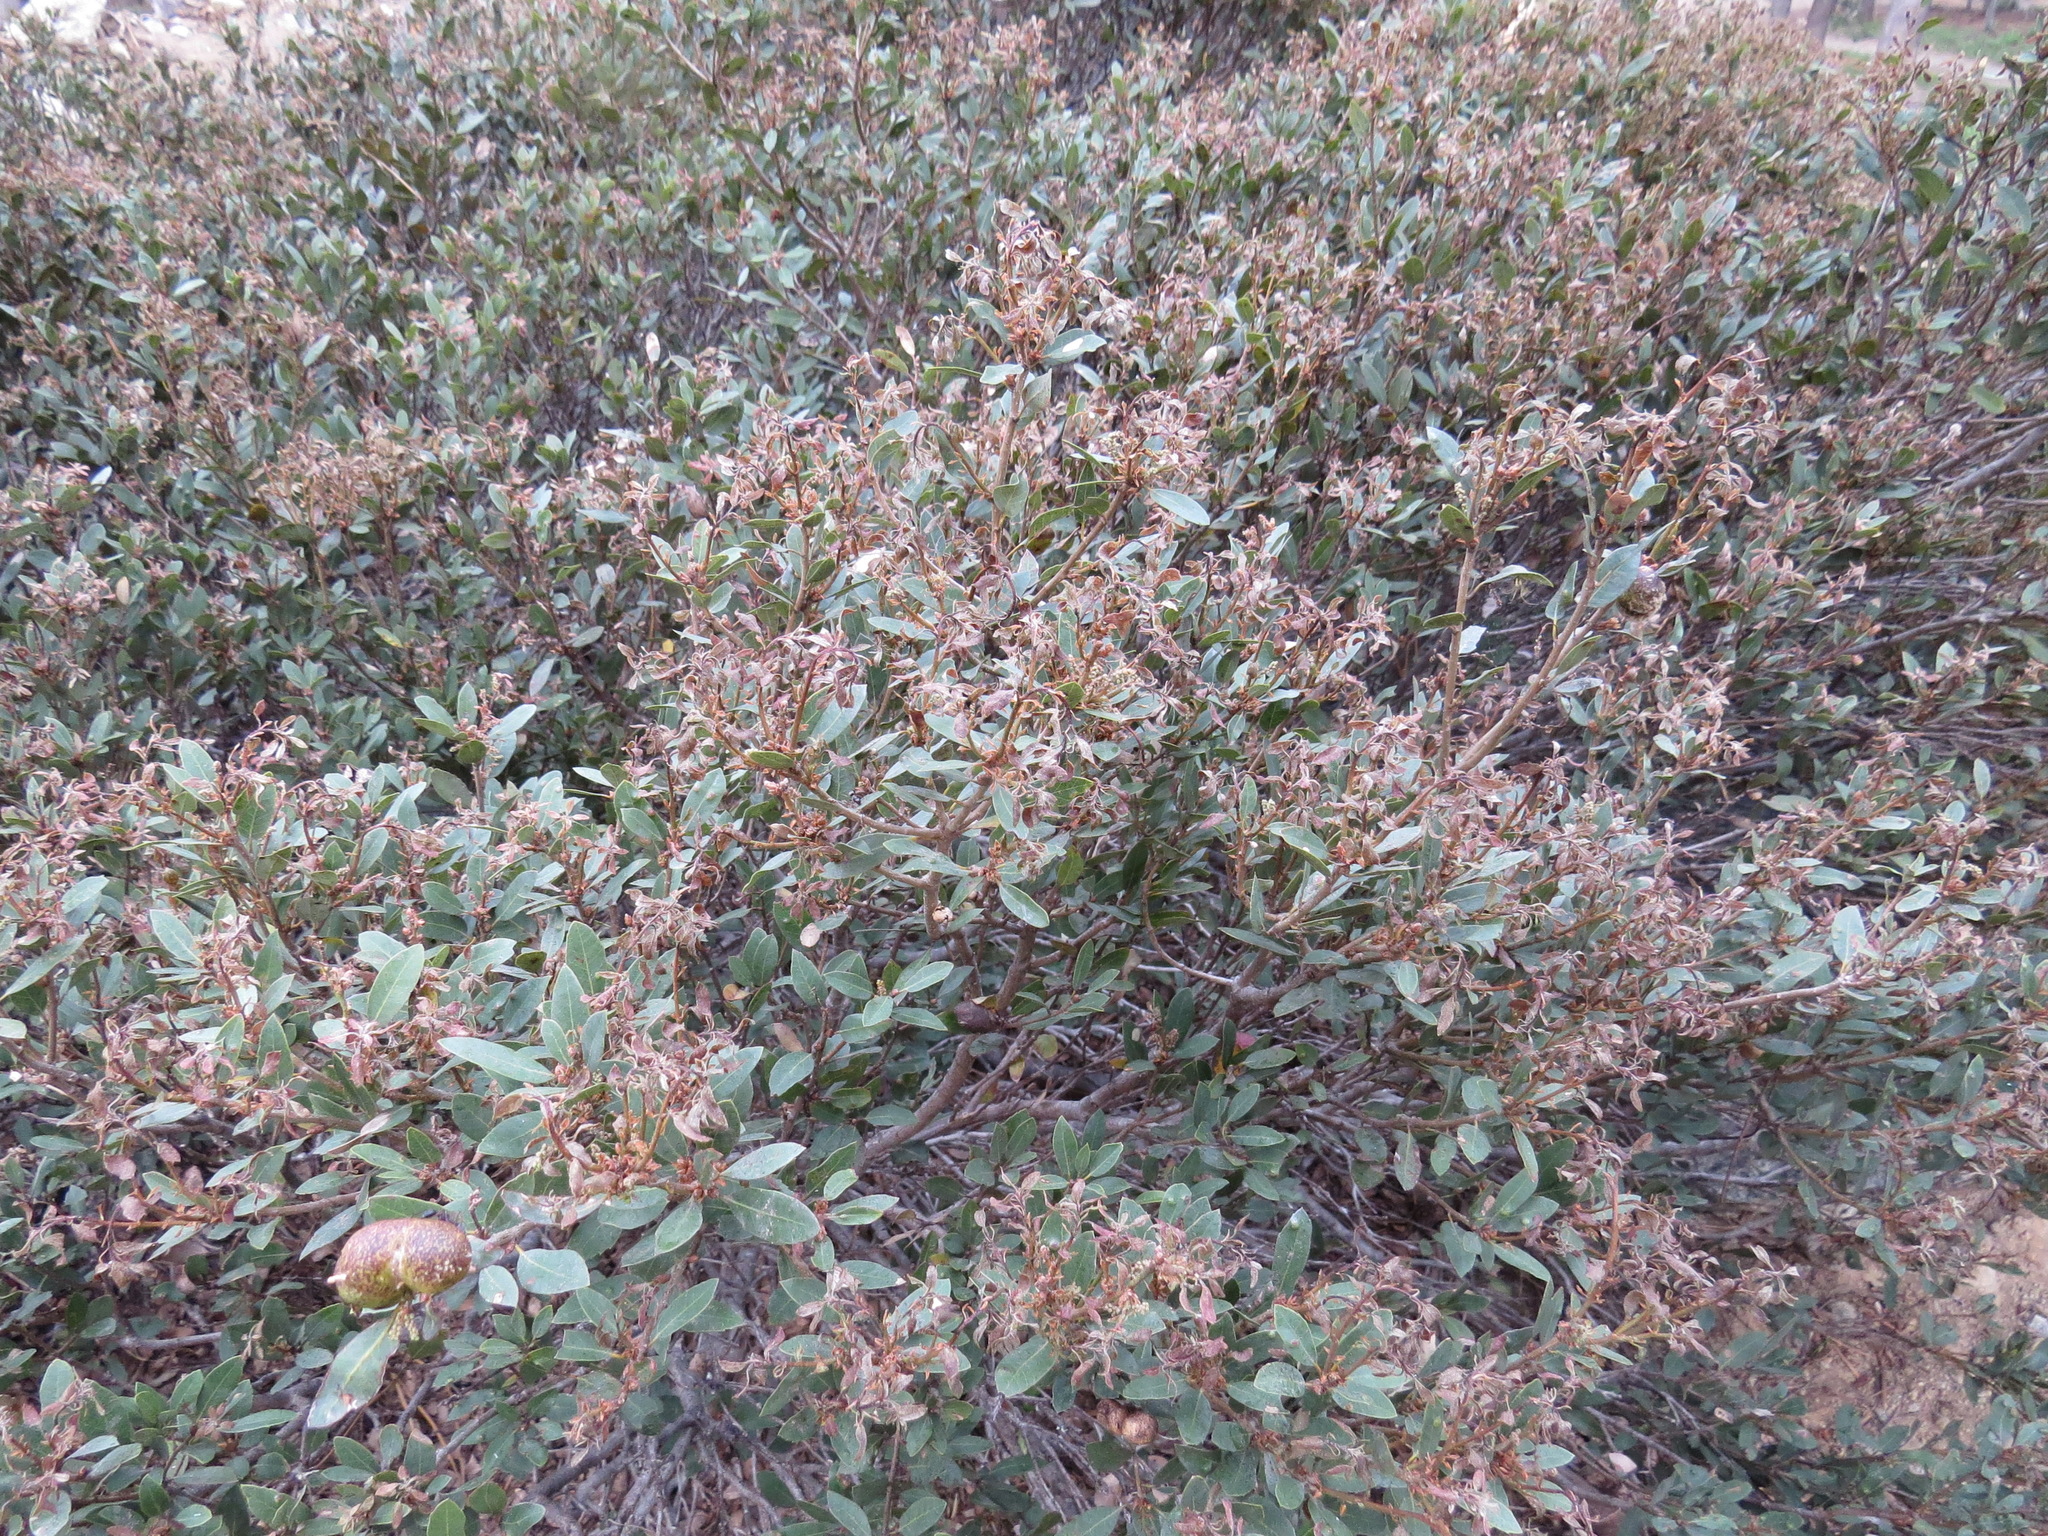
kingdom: Animalia
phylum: Arthropoda
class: Insecta
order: Hymenoptera
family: Cynipidae
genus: Disholandricus
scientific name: Disholandricus
